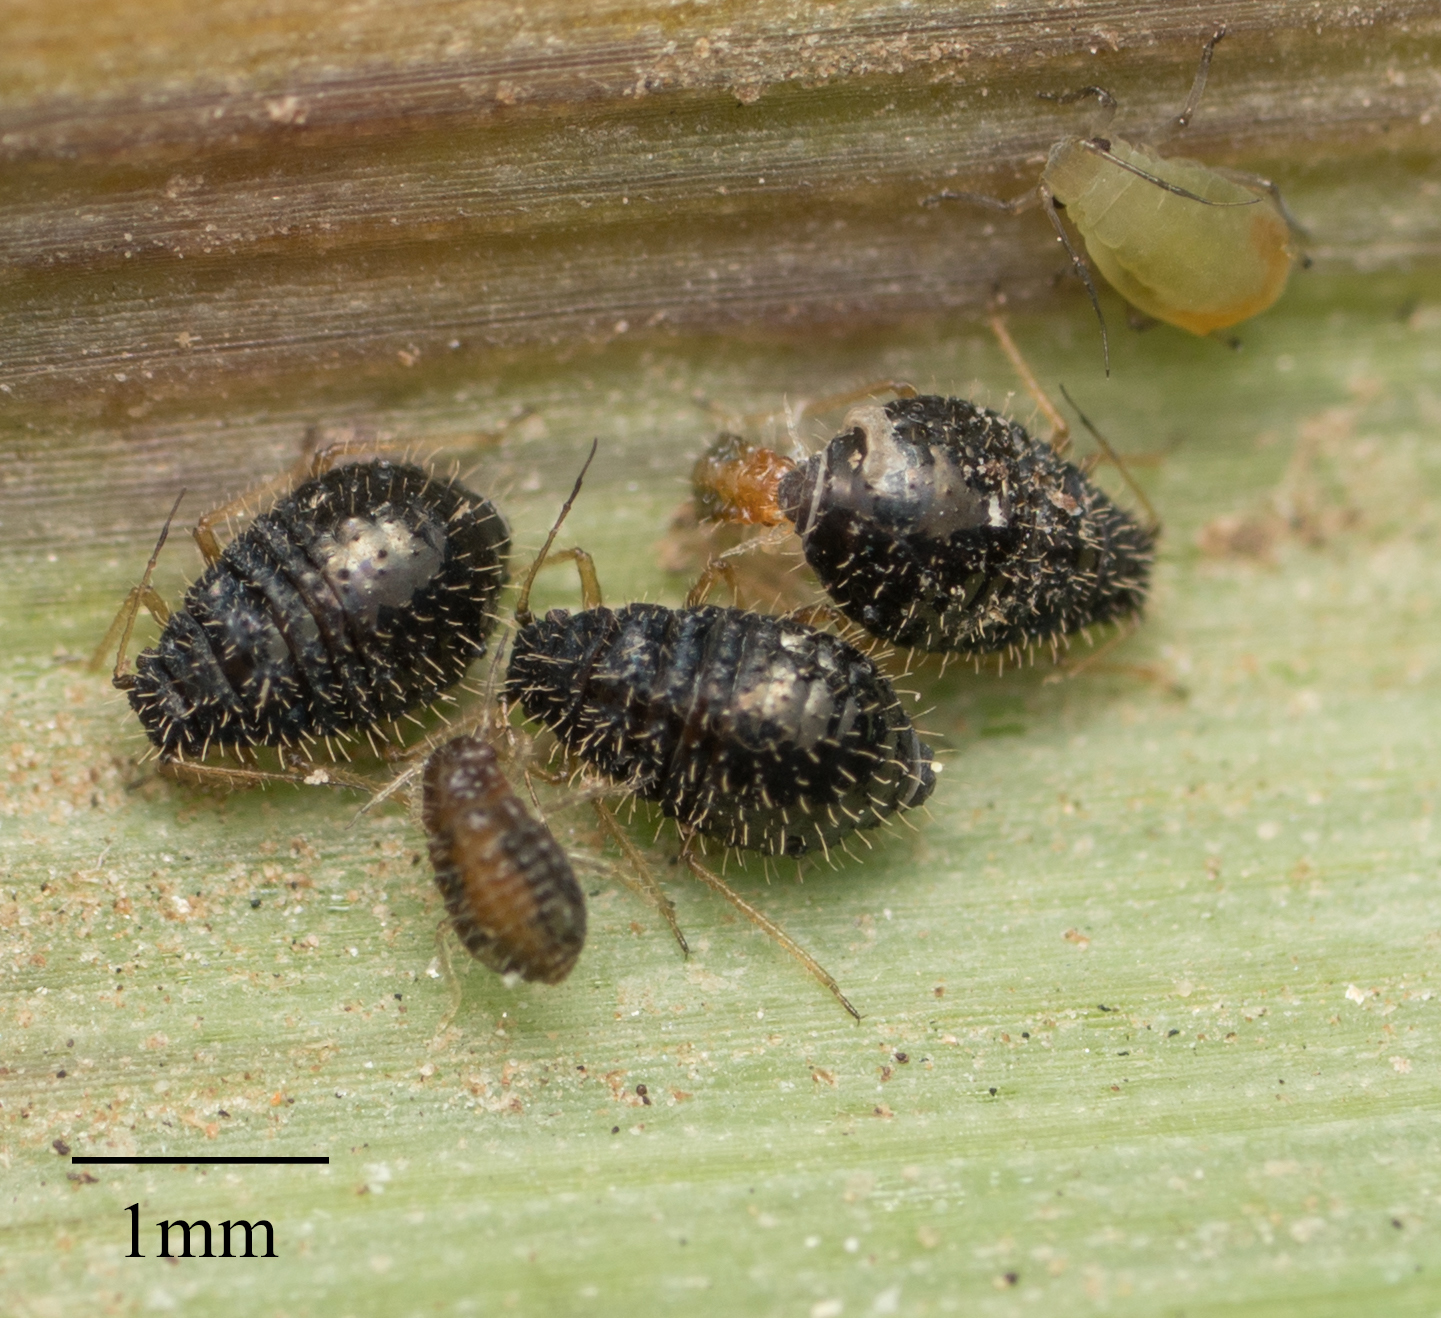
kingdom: Animalia
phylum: Arthropoda
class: Insecta
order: Hemiptera
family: Aphididae
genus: Sipha
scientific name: Sipha maydis
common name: Aphid
